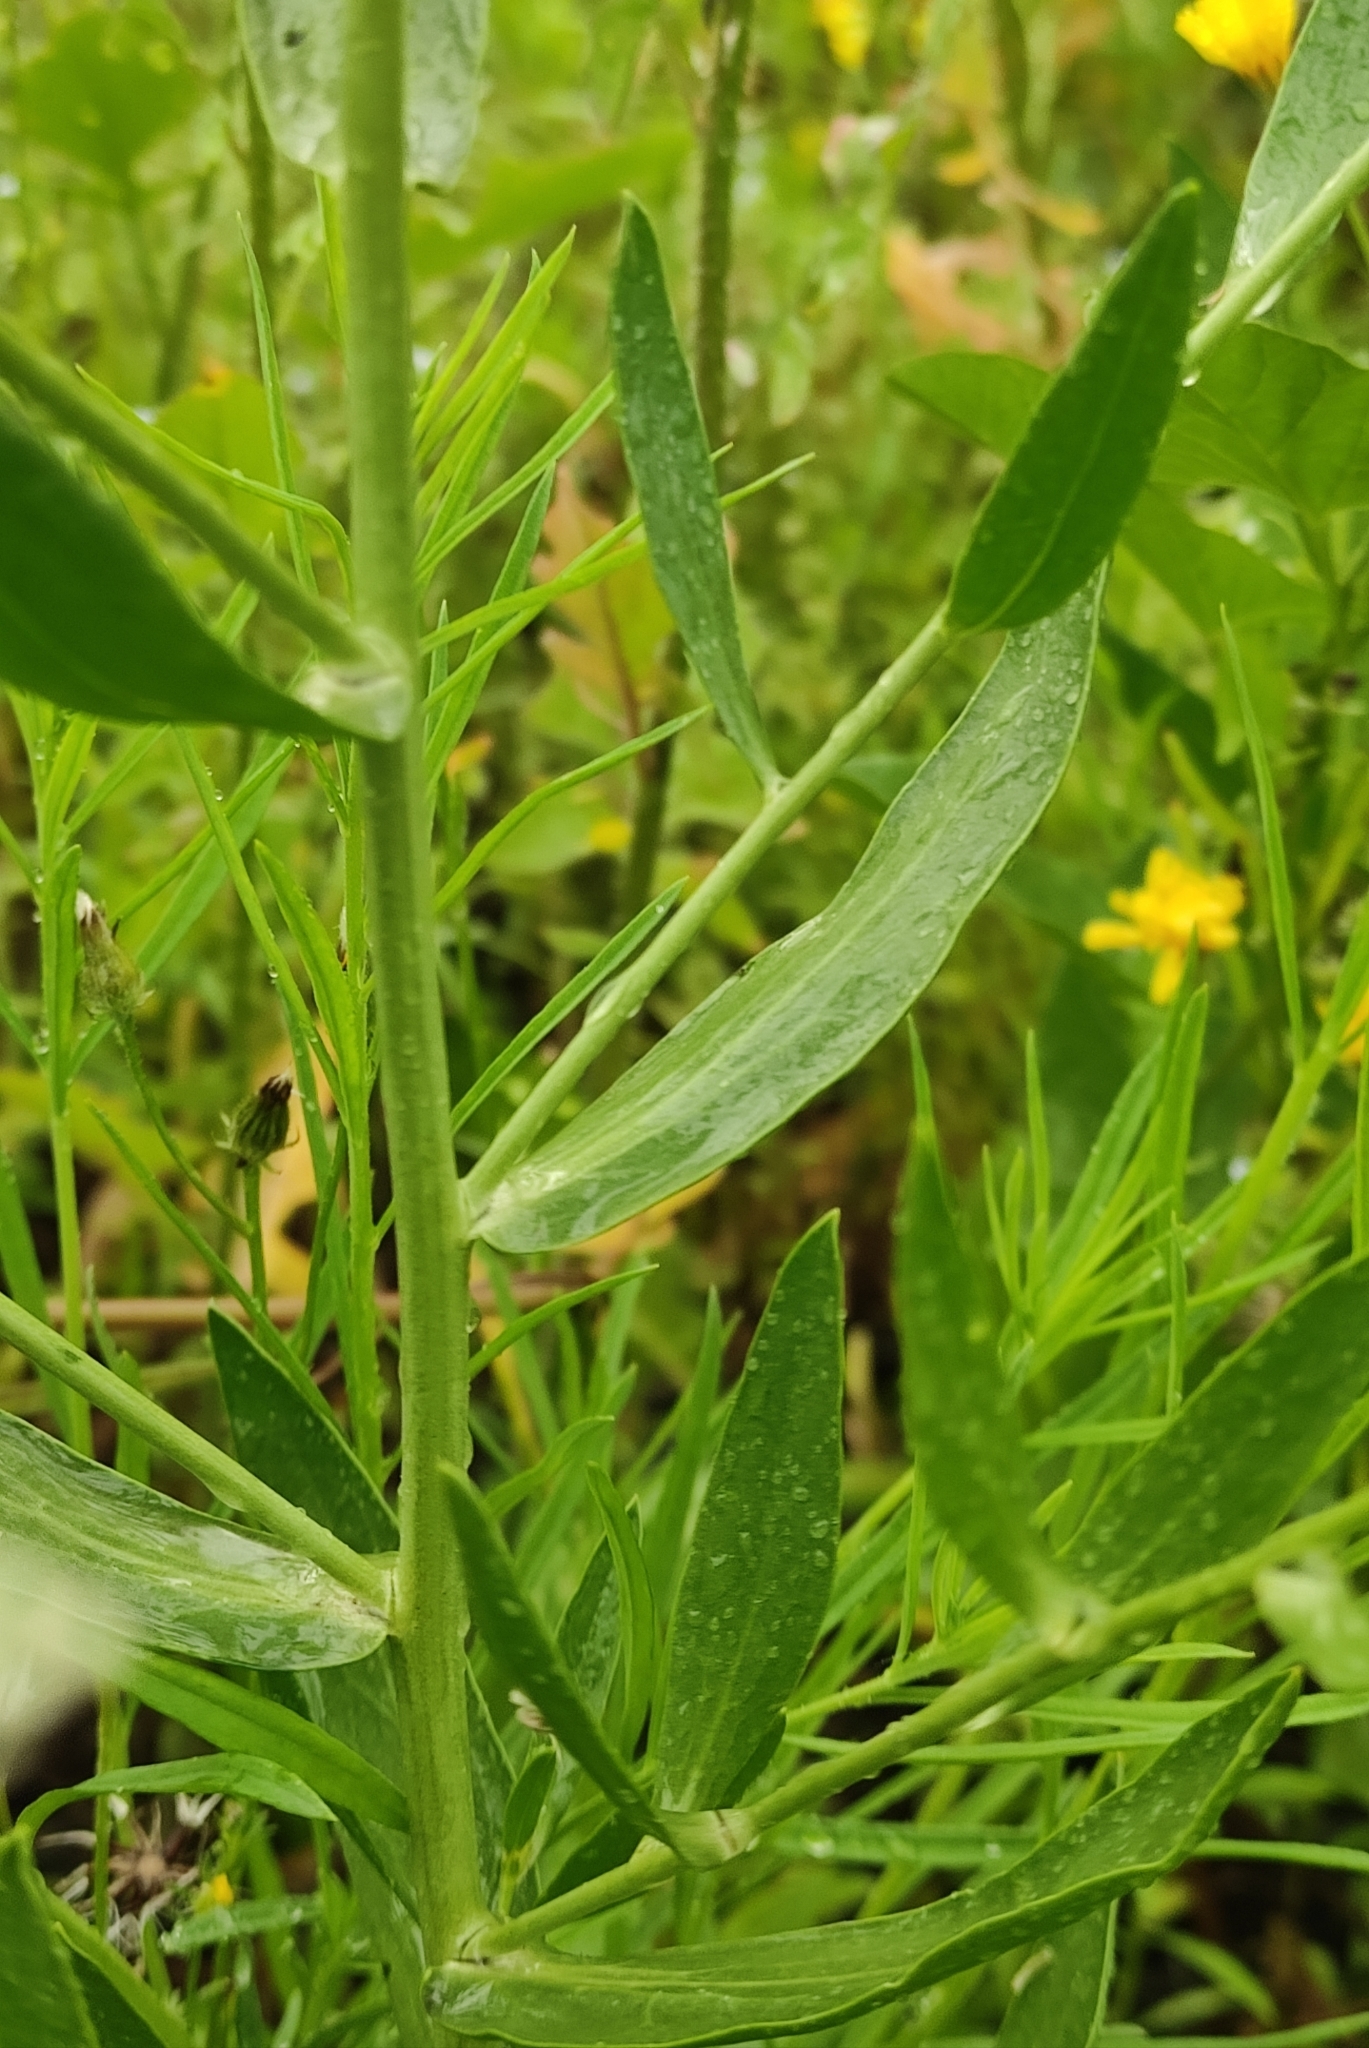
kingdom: Plantae
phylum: Tracheophyta
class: Magnoliopsida
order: Brassicales
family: Brassicaceae
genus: Lepidium
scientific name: Lepidium latifolium
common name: Dittander
